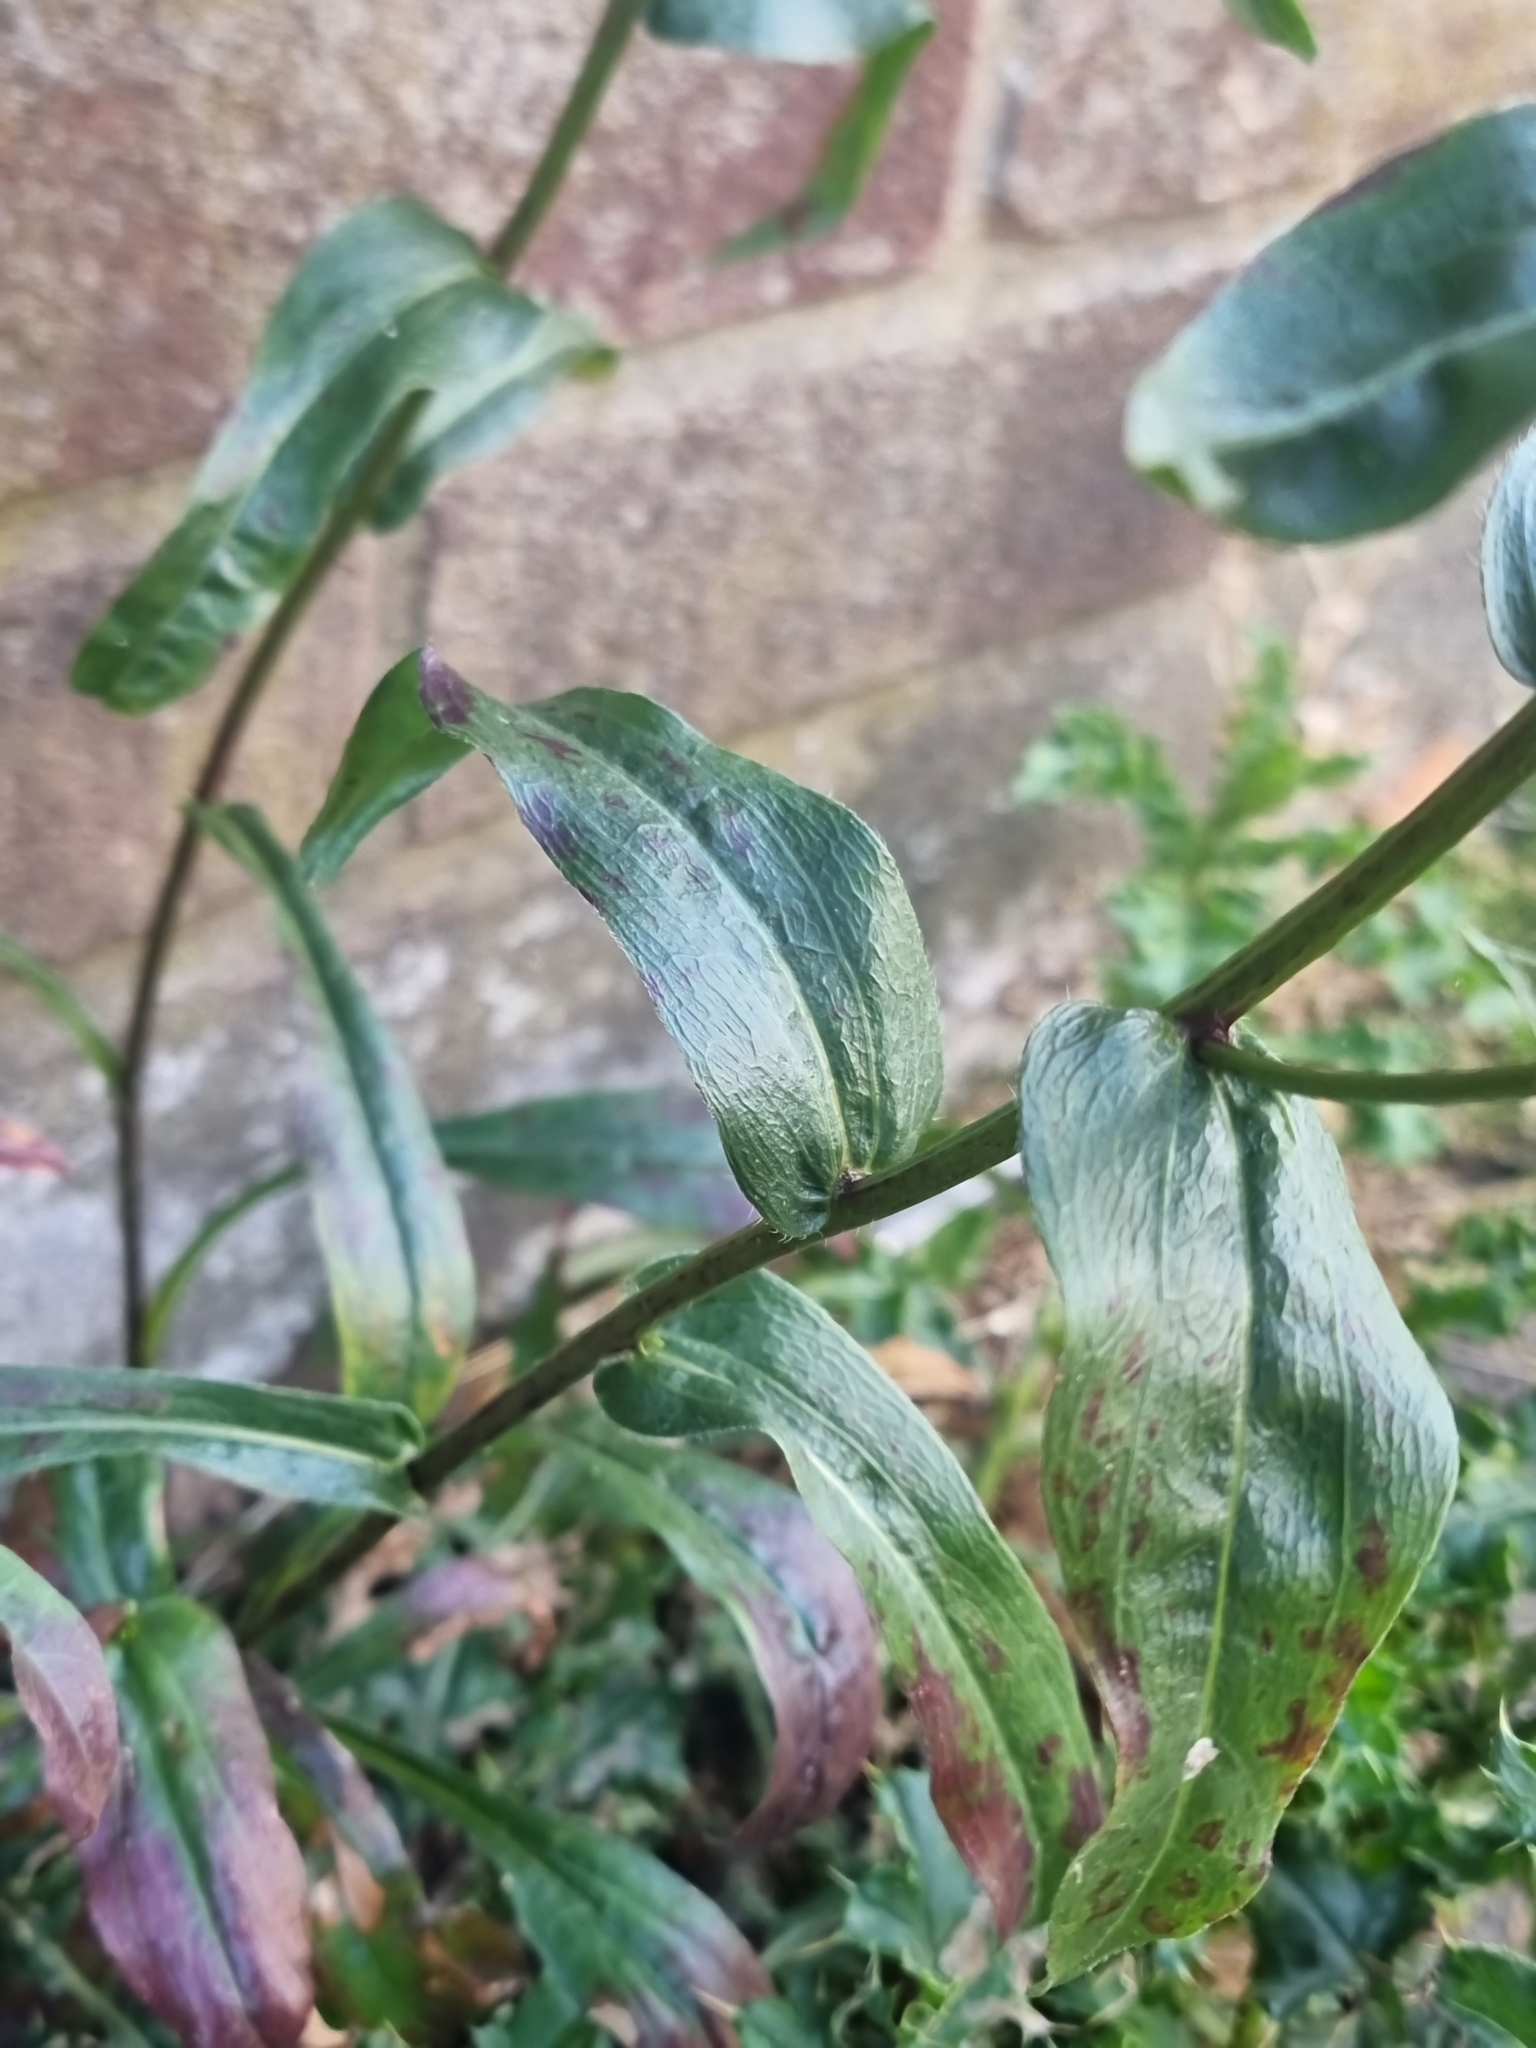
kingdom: Plantae
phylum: Tracheophyta
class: Magnoliopsida
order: Asterales
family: Asteraceae
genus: Erigeron
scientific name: Erigeron speciosus
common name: Aspen fleabane
